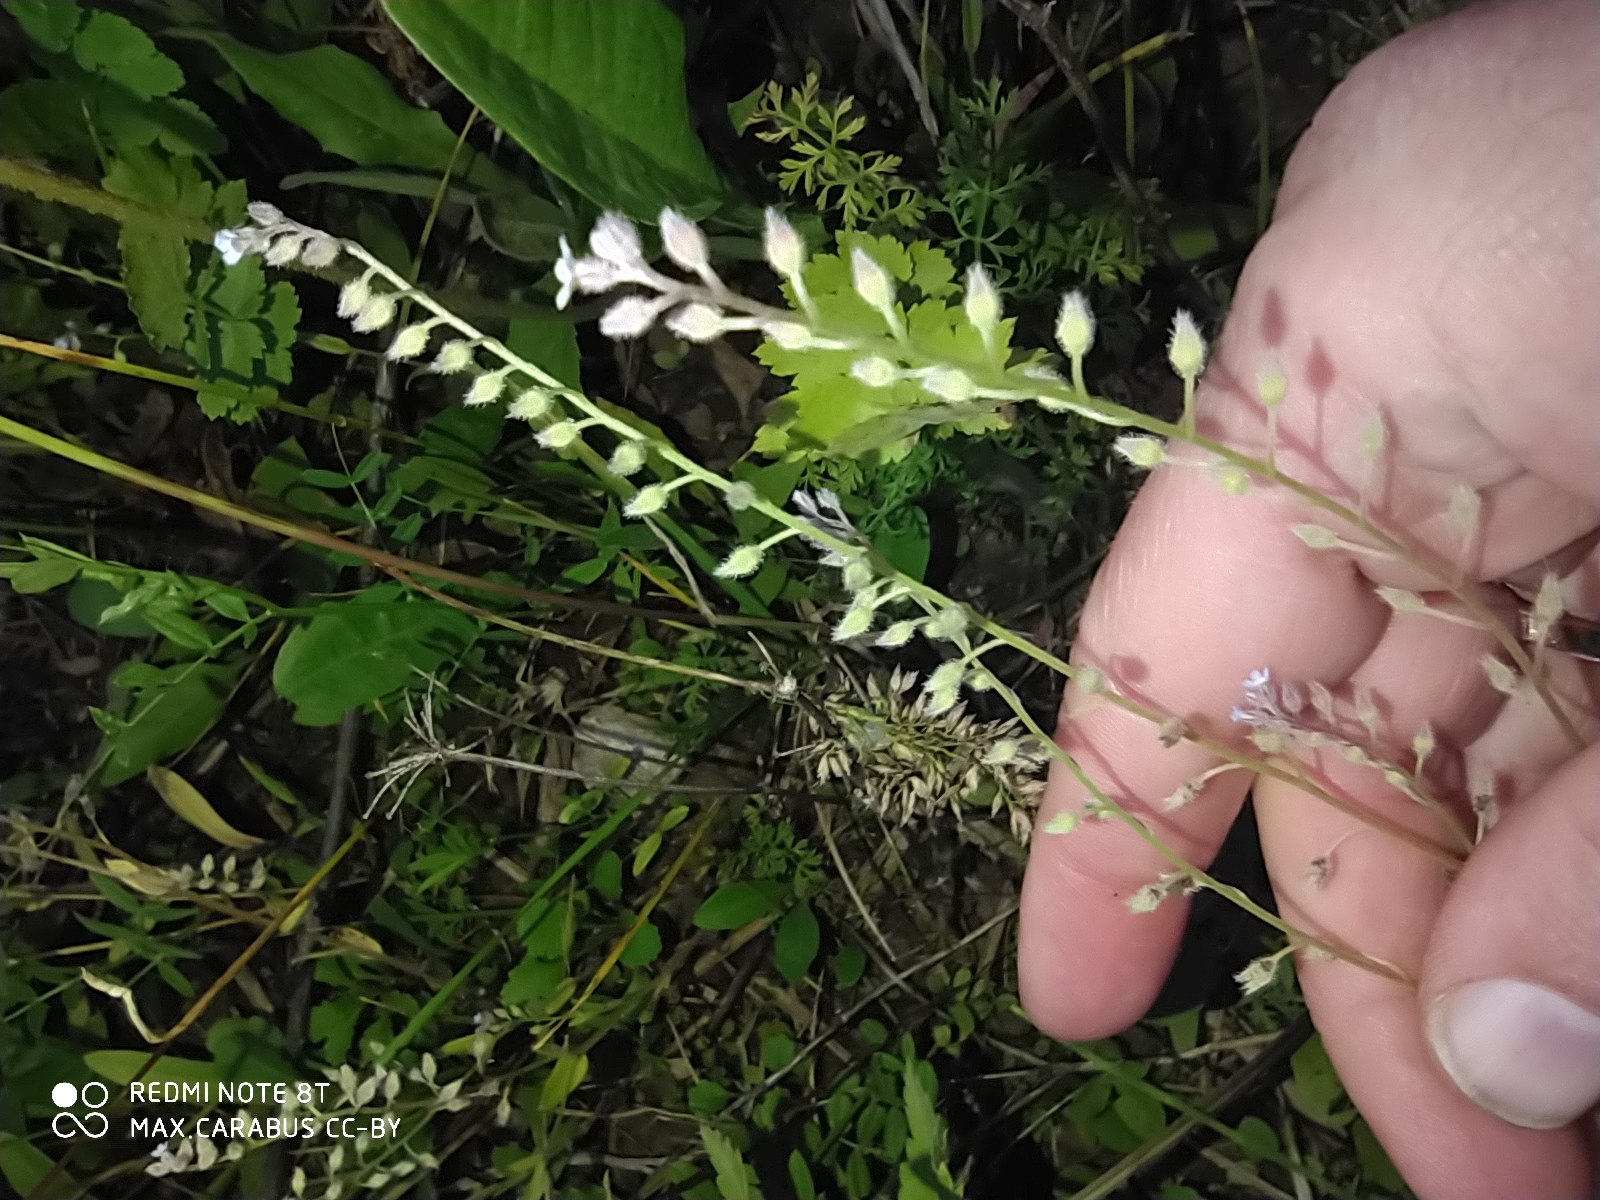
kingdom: Plantae
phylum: Tracheophyta
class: Magnoliopsida
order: Boraginales
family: Boraginaceae
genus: Myosotis
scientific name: Myosotis arvensis
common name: Field forget-me-not
